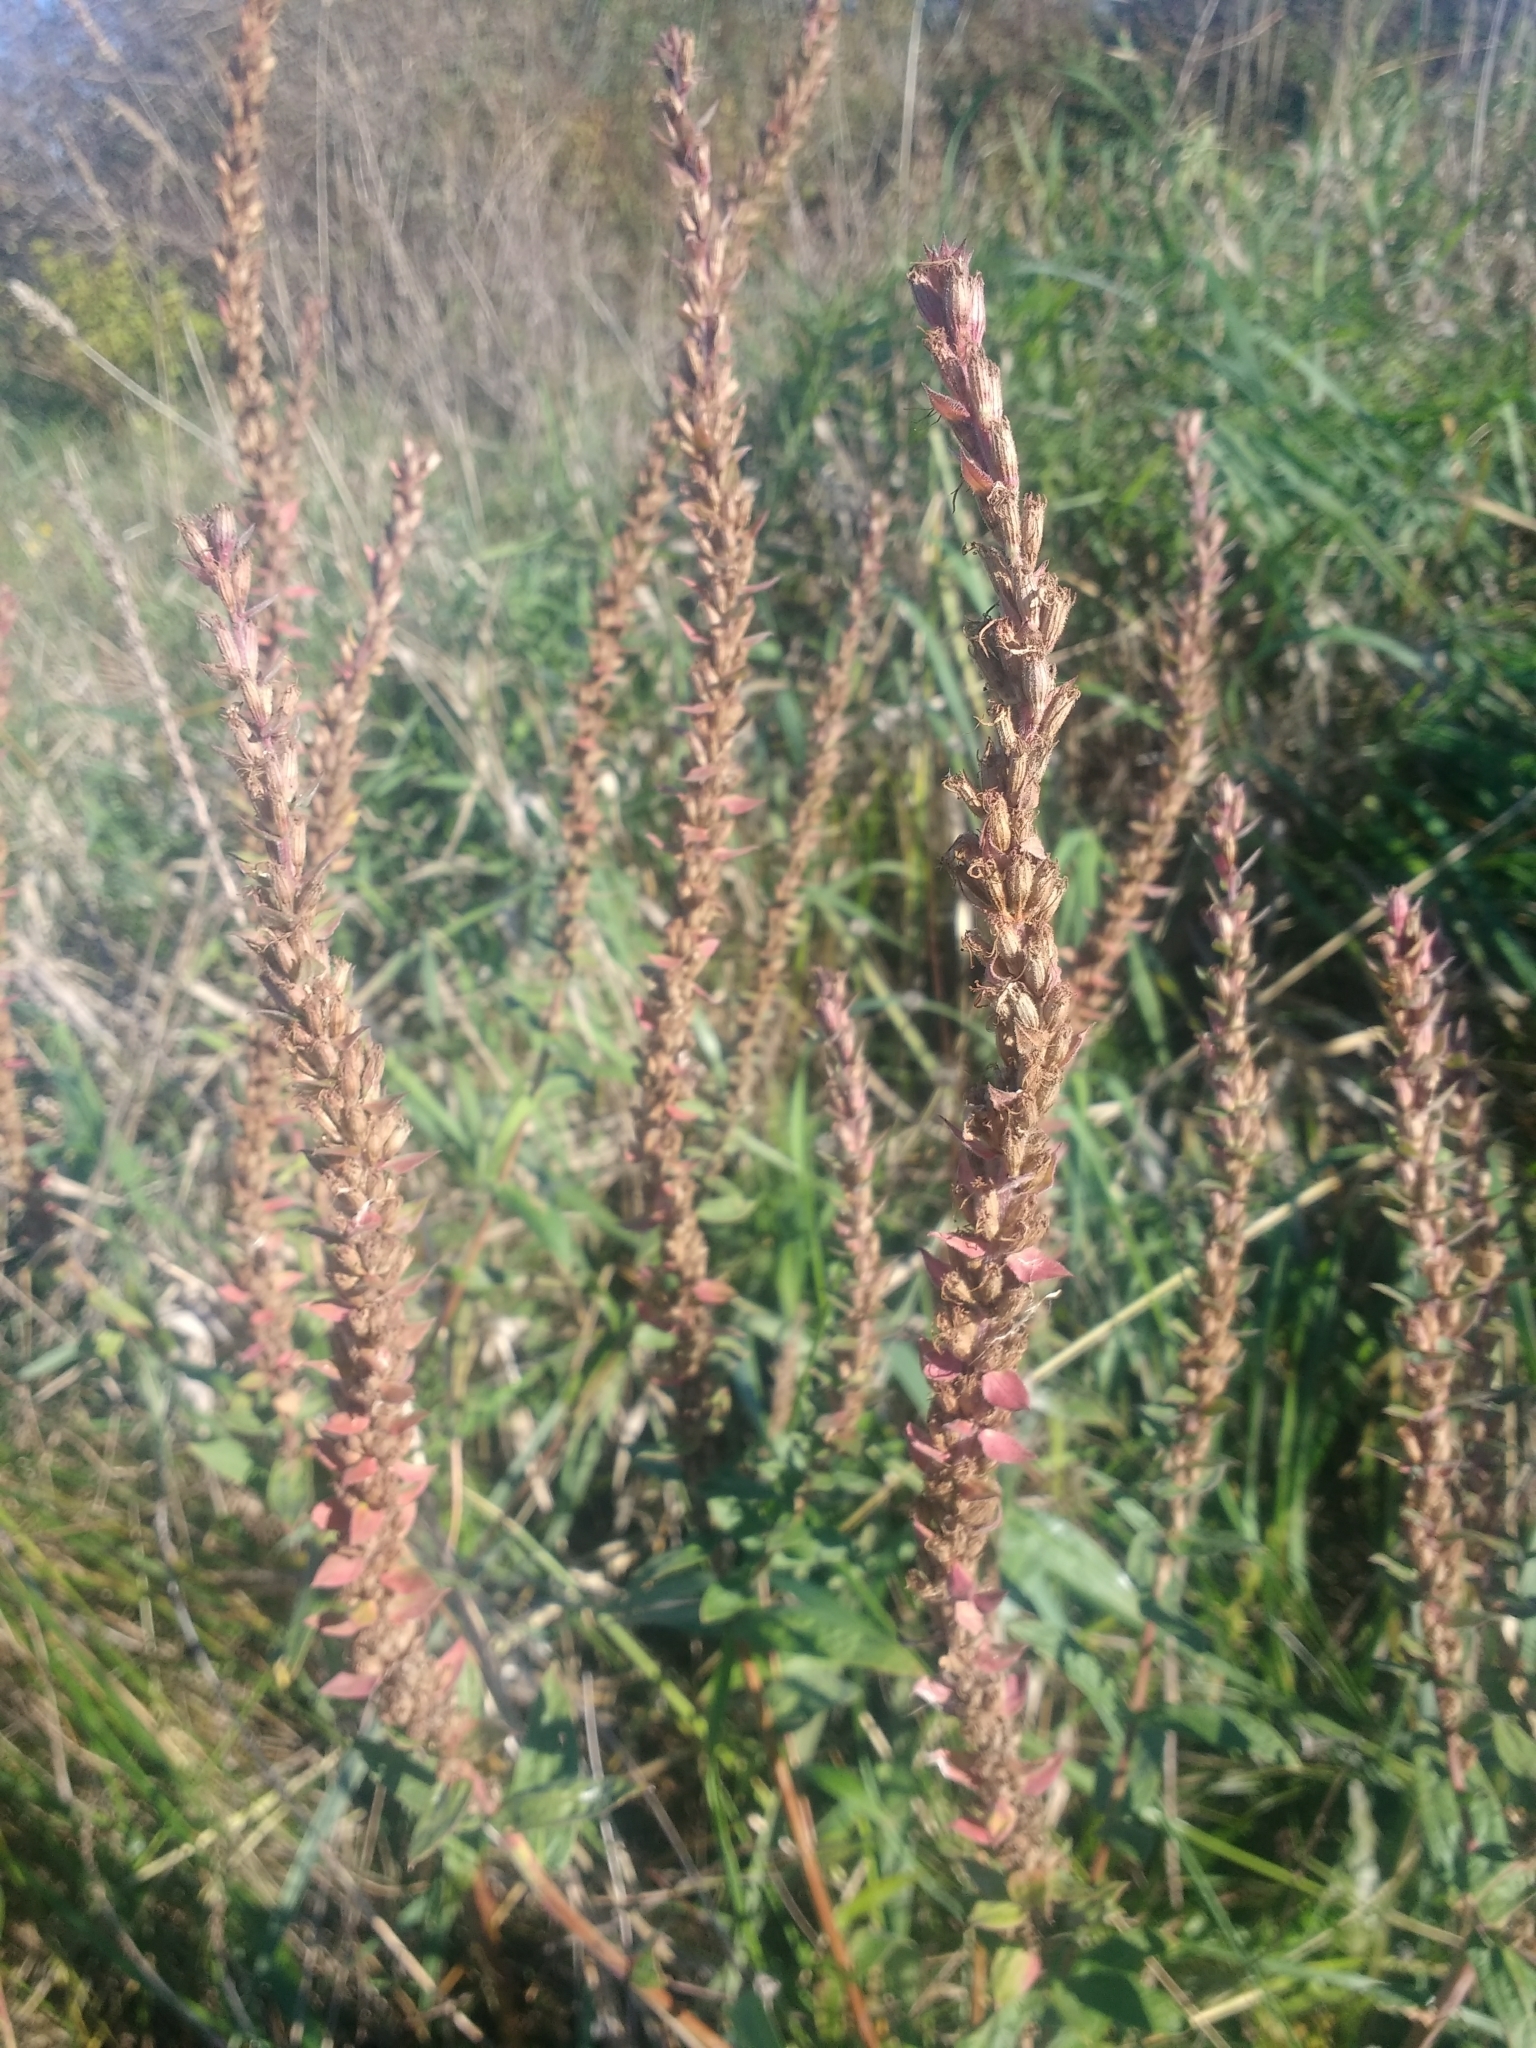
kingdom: Plantae
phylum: Tracheophyta
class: Magnoliopsida
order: Myrtales
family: Lythraceae
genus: Lythrum
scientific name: Lythrum salicaria
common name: Purple loosestrife
